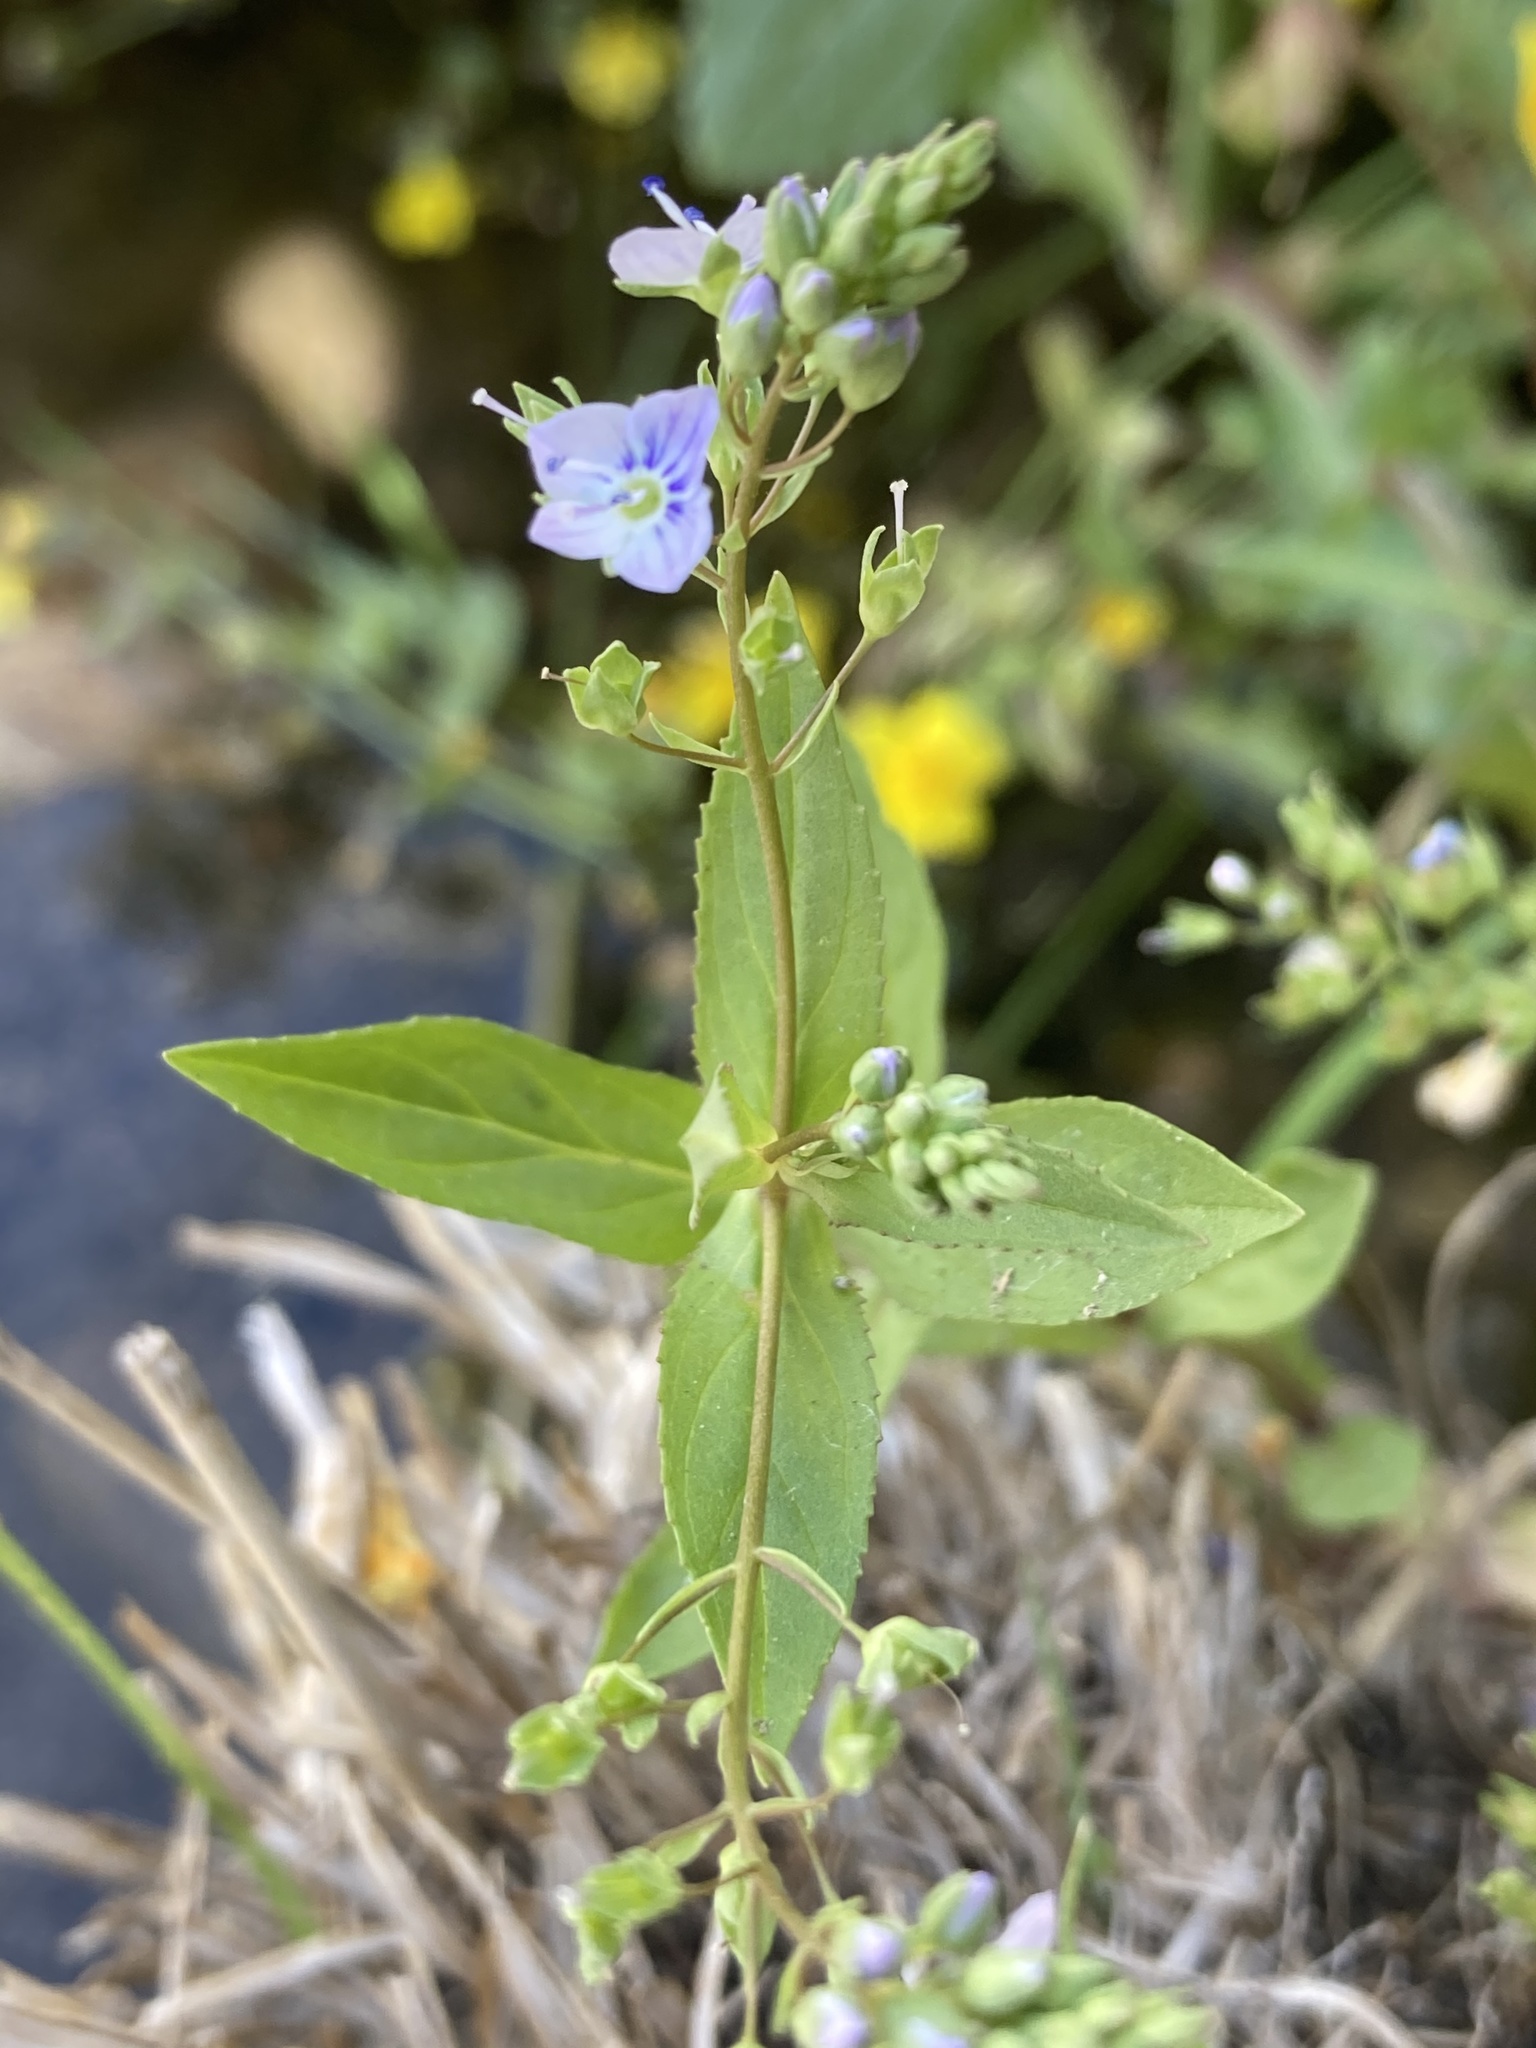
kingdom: Plantae
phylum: Tracheophyta
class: Magnoliopsida
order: Lamiales
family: Plantaginaceae
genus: Veronica
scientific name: Veronica anagallis-aquatica
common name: Water speedwell
